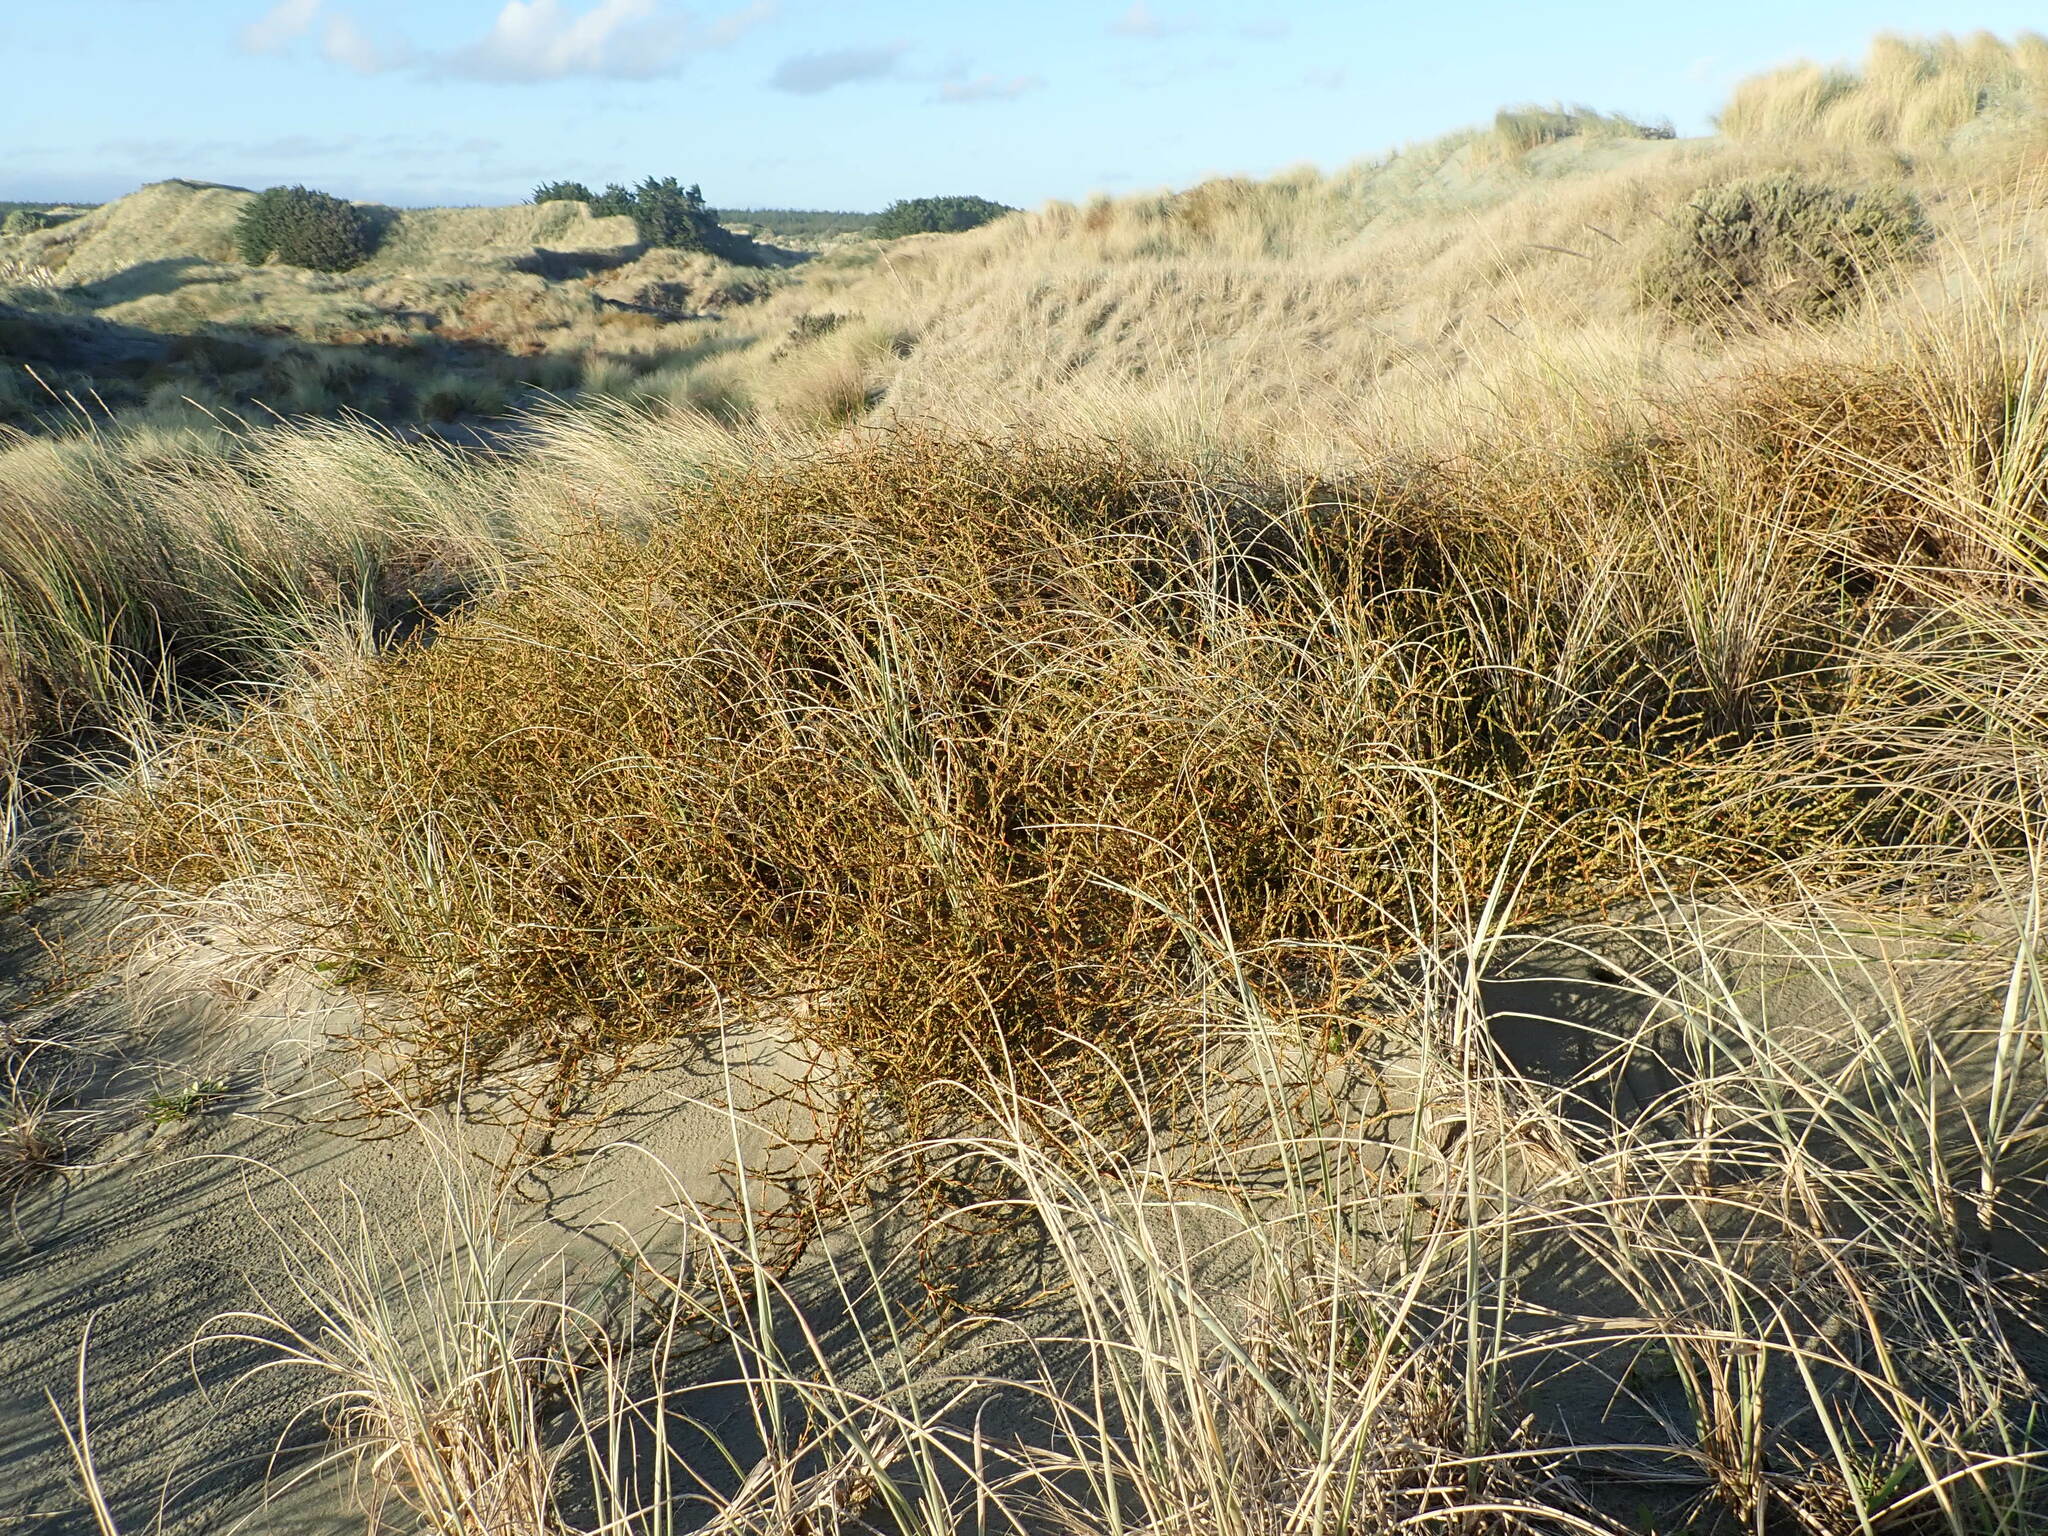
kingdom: Plantae
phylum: Tracheophyta
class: Magnoliopsida
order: Gentianales
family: Rubiaceae
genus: Coprosma
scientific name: Coprosma acerosa
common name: Sand coprosma
